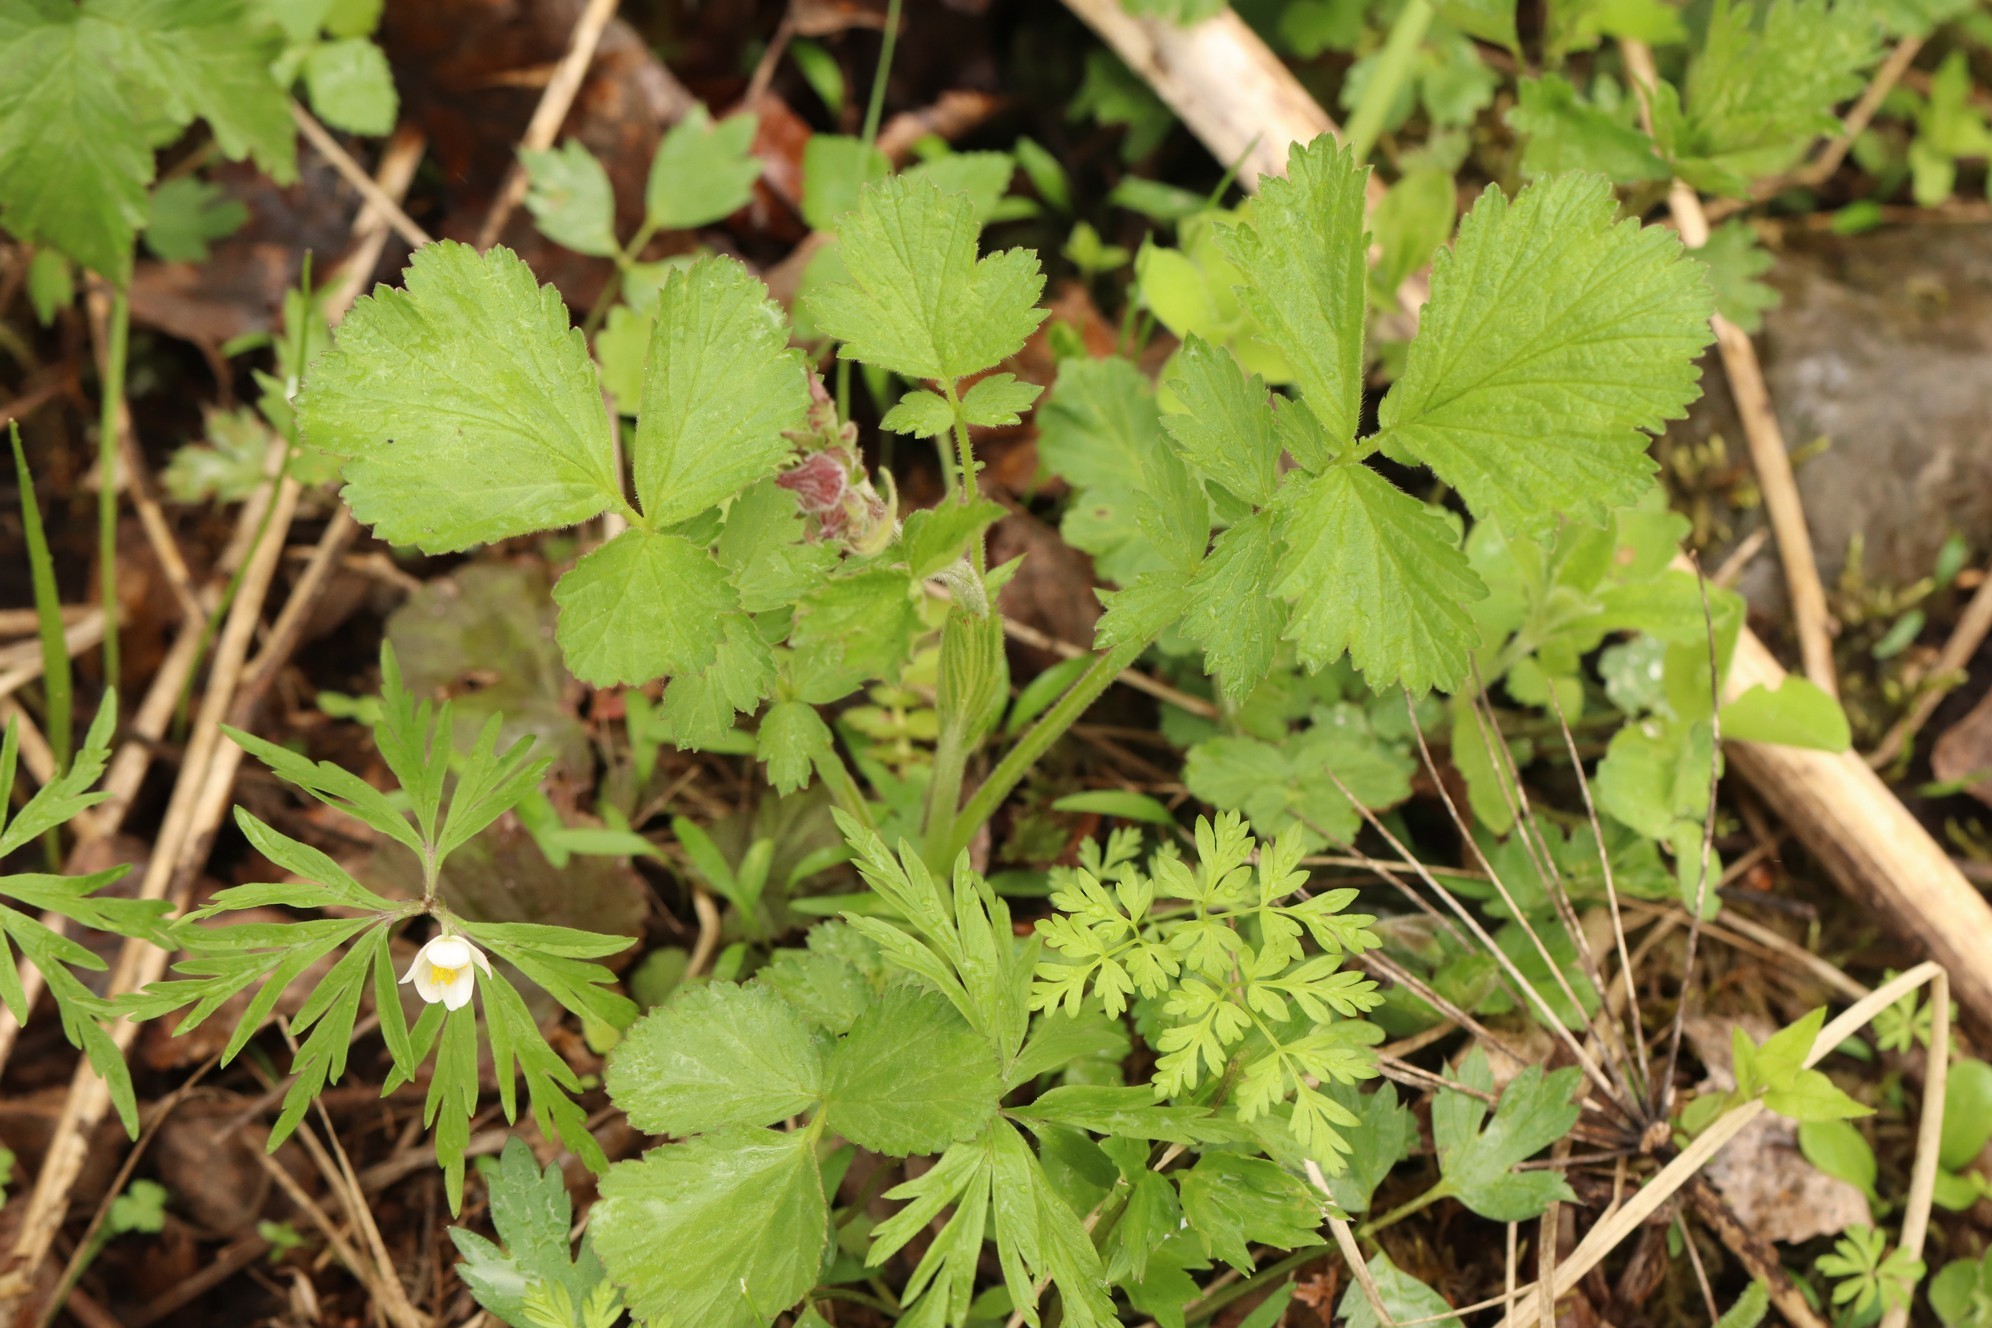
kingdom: Plantae
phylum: Tracheophyta
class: Magnoliopsida
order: Rosales
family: Rosaceae
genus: Geum
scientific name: Geum rivale
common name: Water avens
